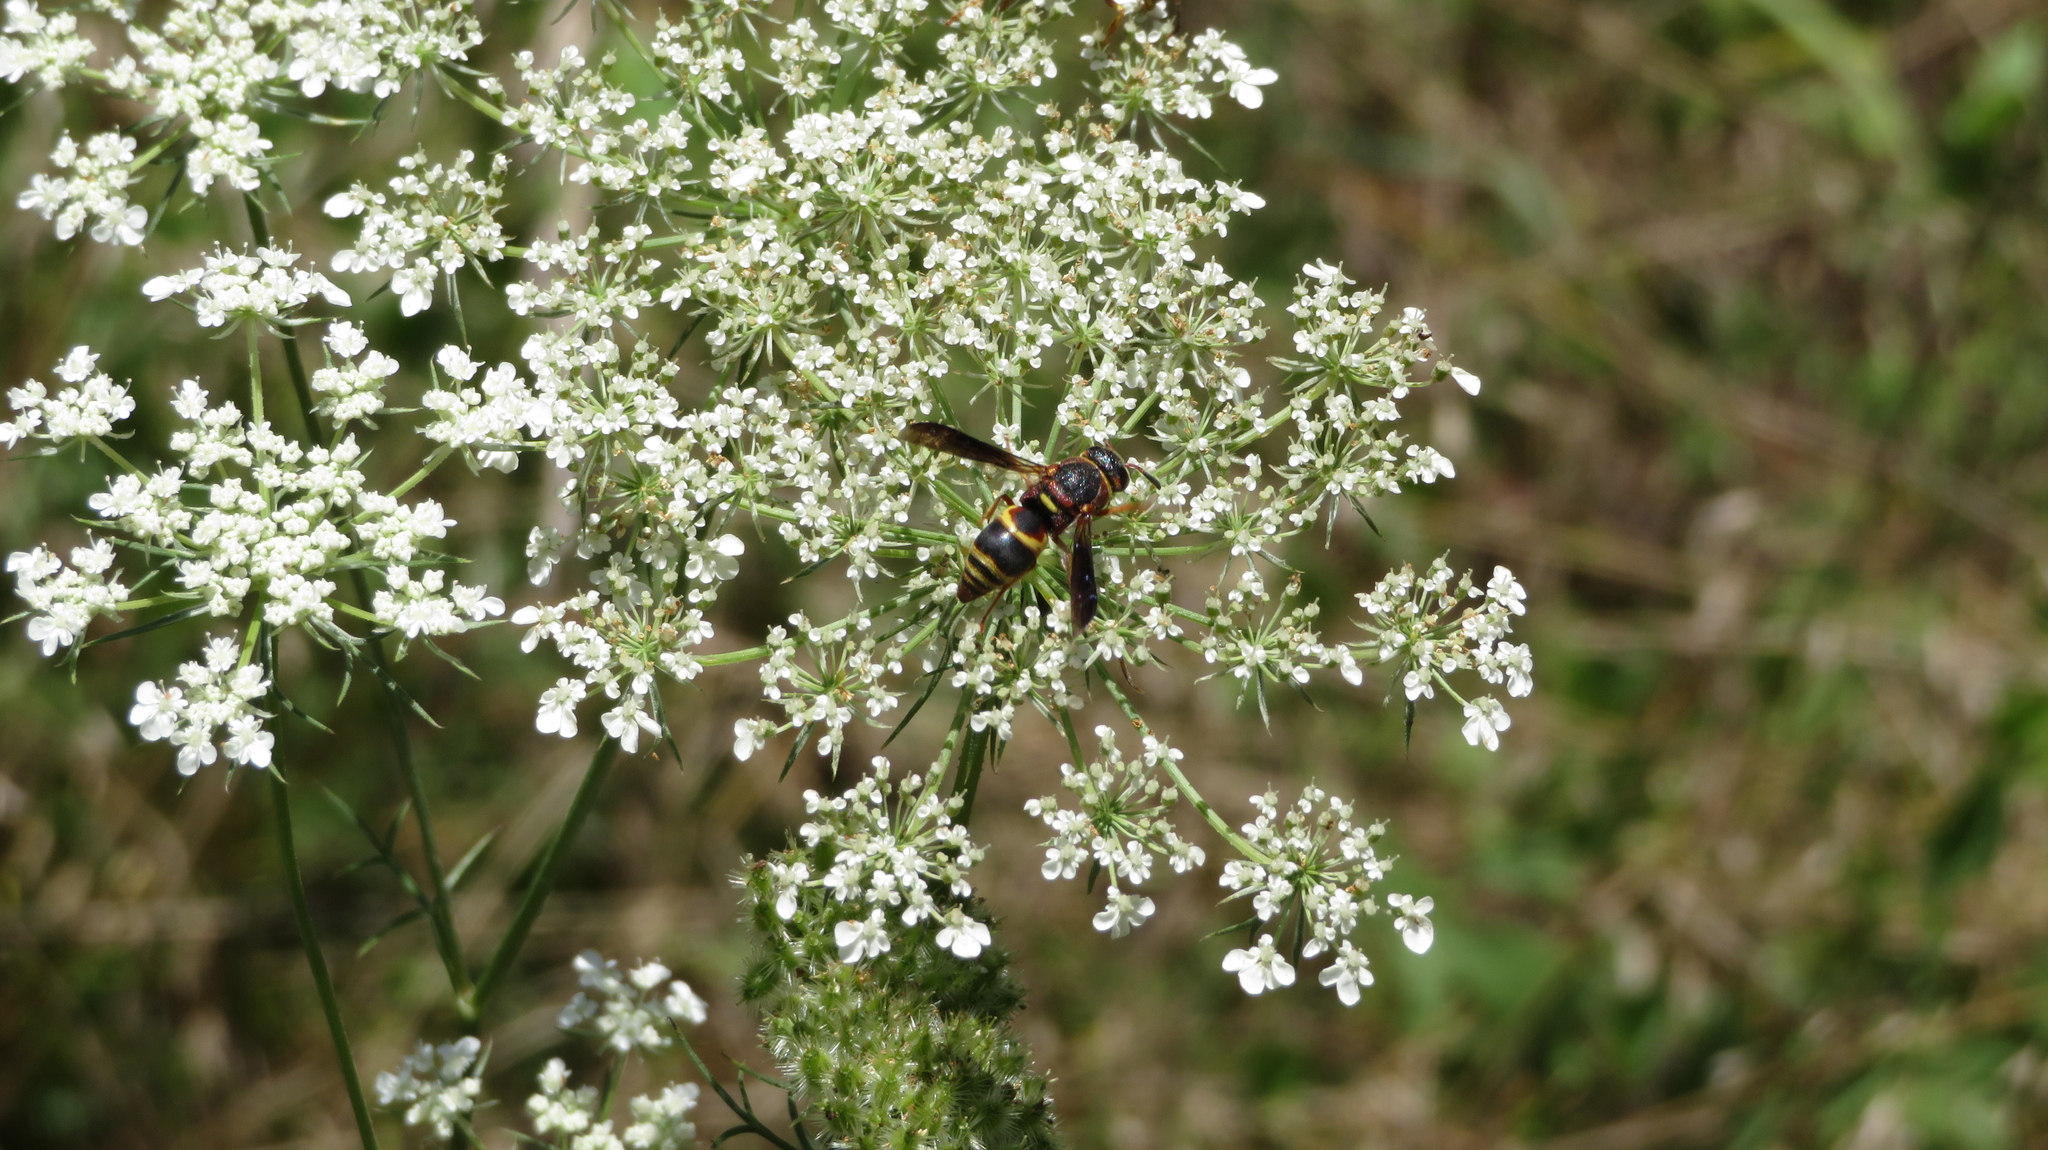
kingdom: Animalia
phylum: Arthropoda
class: Insecta
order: Hymenoptera
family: Eumenidae
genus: Euodynerus
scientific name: Euodynerus hidalgo
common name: Wasp
